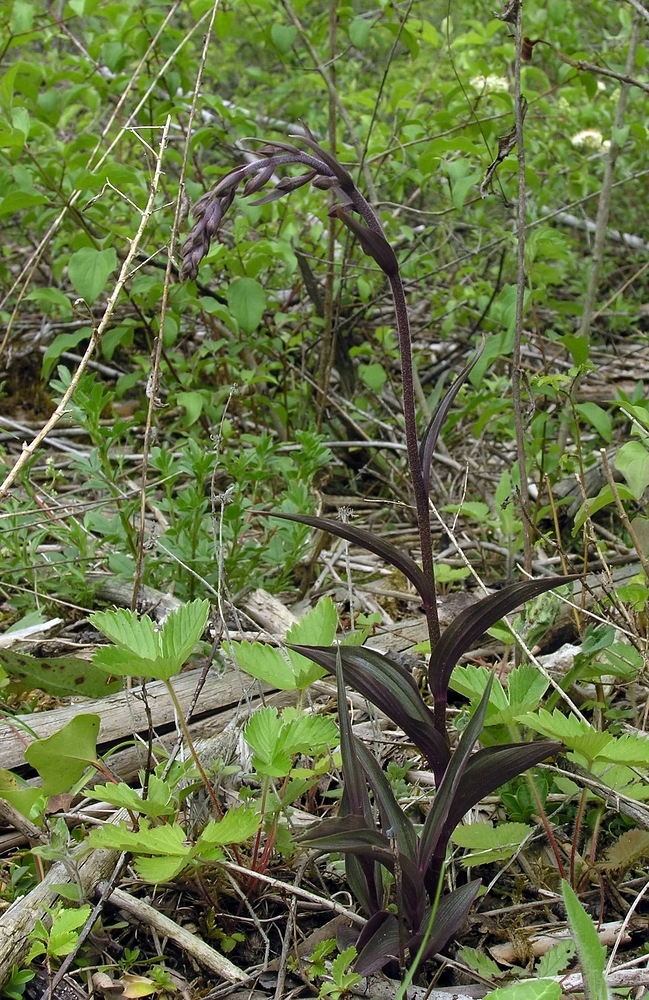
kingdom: Plantae
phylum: Tracheophyta
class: Liliopsida
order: Asparagales
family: Orchidaceae
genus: Epipactis
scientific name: Epipactis atrorubens
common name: Dark-red helleborine
